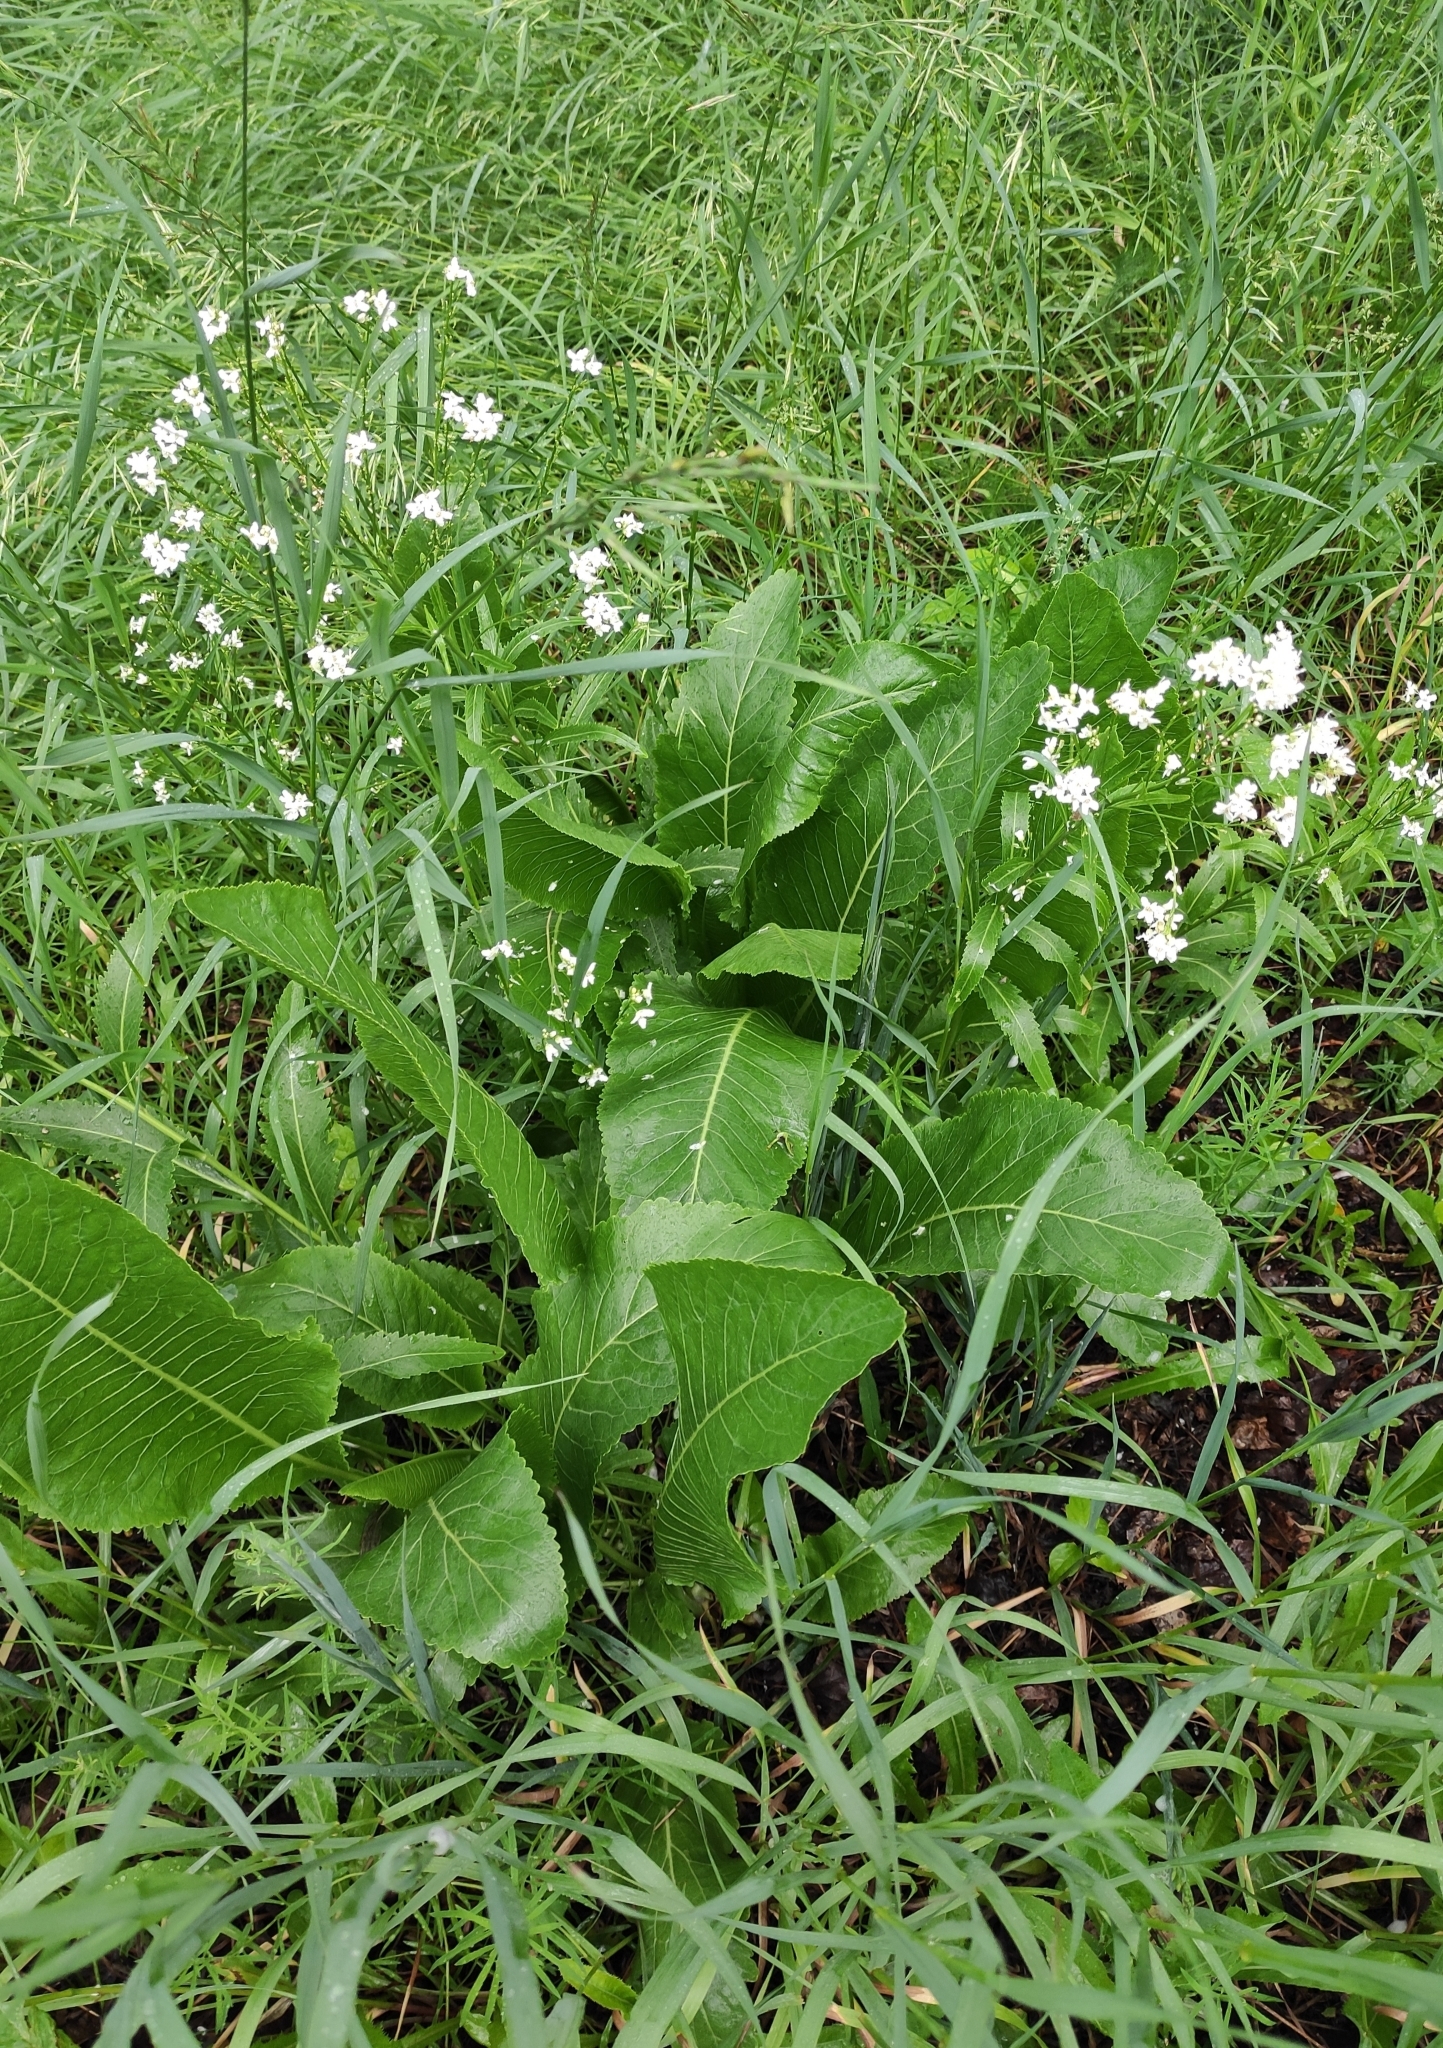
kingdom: Plantae
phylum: Tracheophyta
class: Magnoliopsida
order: Brassicales
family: Brassicaceae
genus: Armoracia
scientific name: Armoracia rusticana
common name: Horseradish
